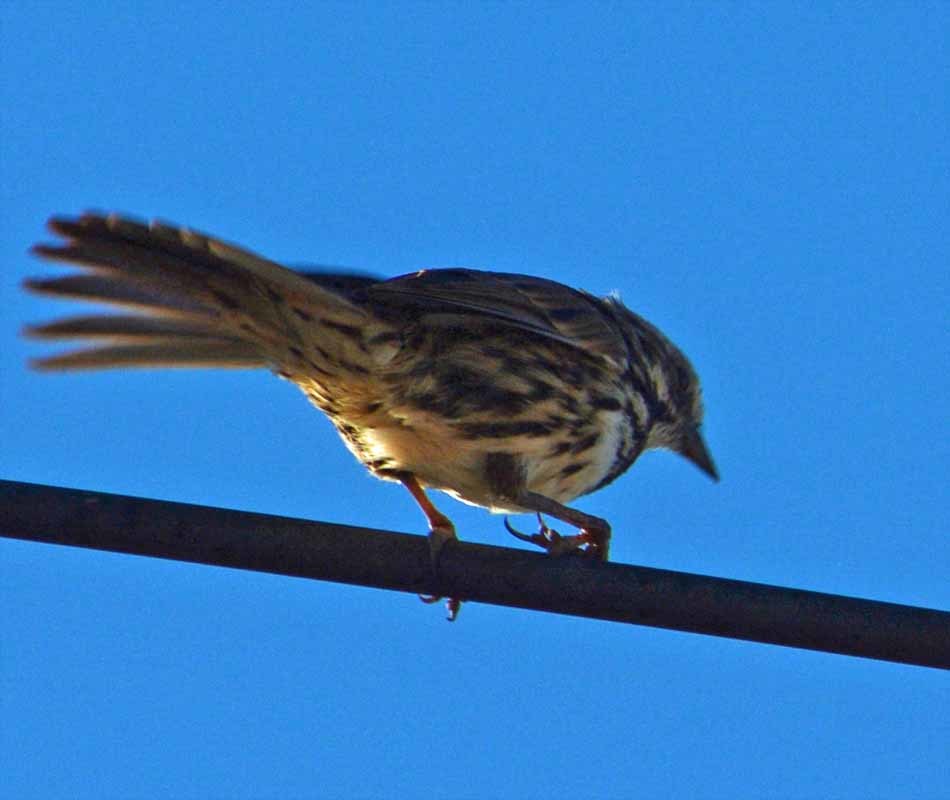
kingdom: Animalia
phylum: Chordata
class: Aves
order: Passeriformes
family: Passerellidae
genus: Melospiza
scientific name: Melospiza melodia
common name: Song sparrow
